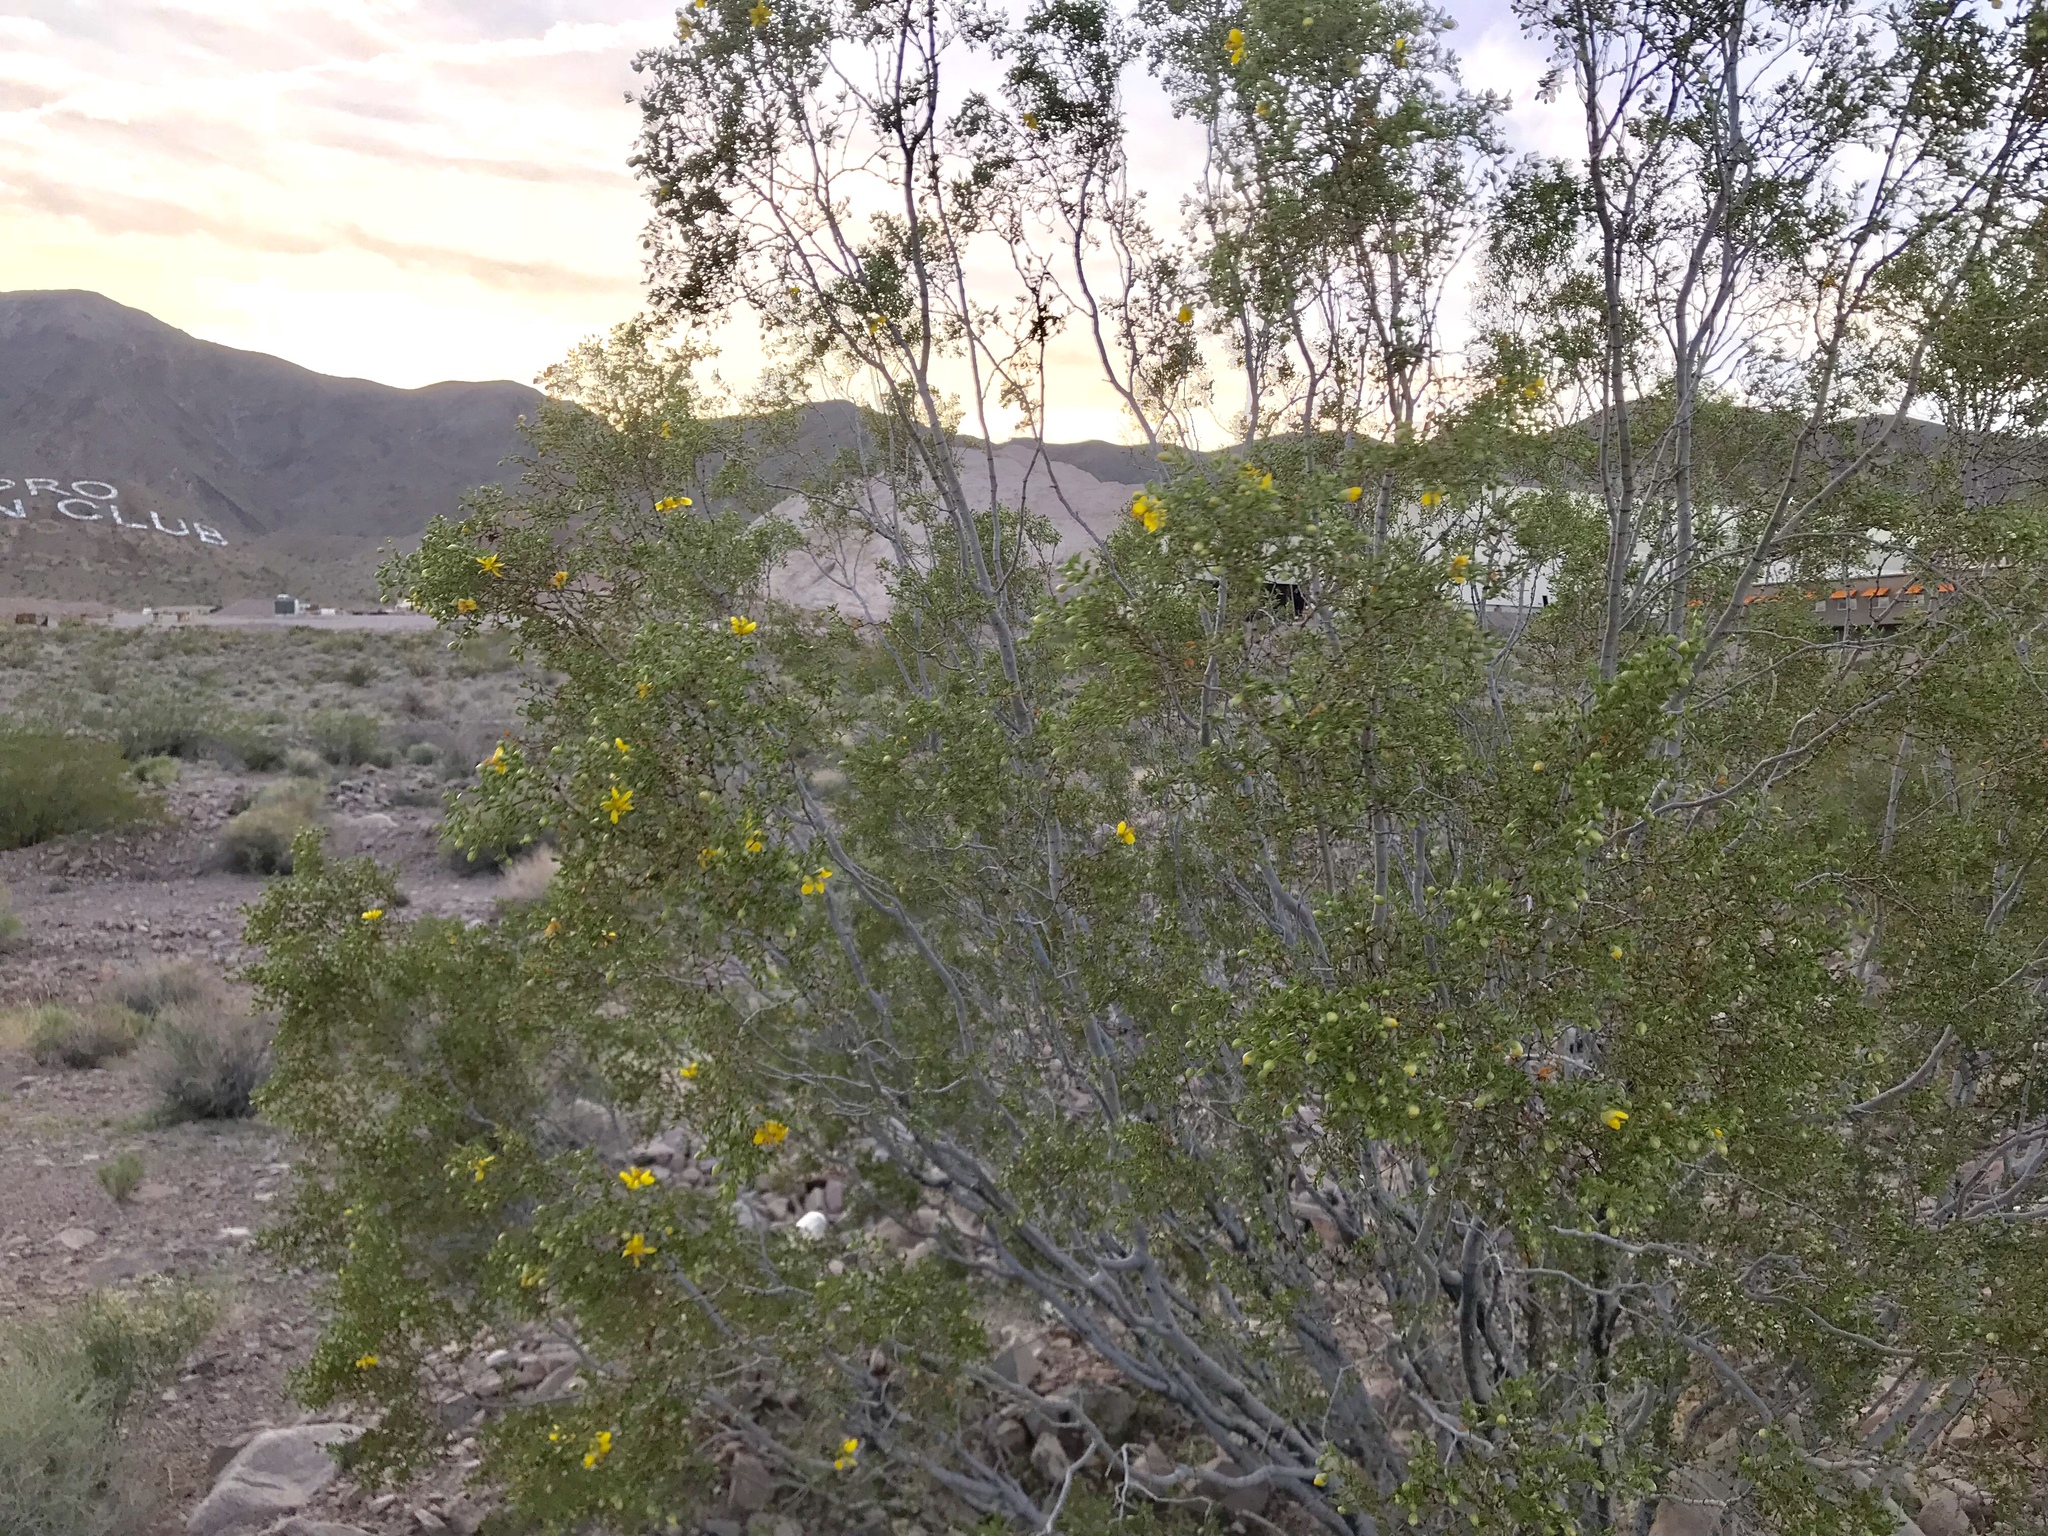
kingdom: Plantae
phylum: Tracheophyta
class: Magnoliopsida
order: Zygophyllales
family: Zygophyllaceae
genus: Larrea
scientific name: Larrea tridentata
